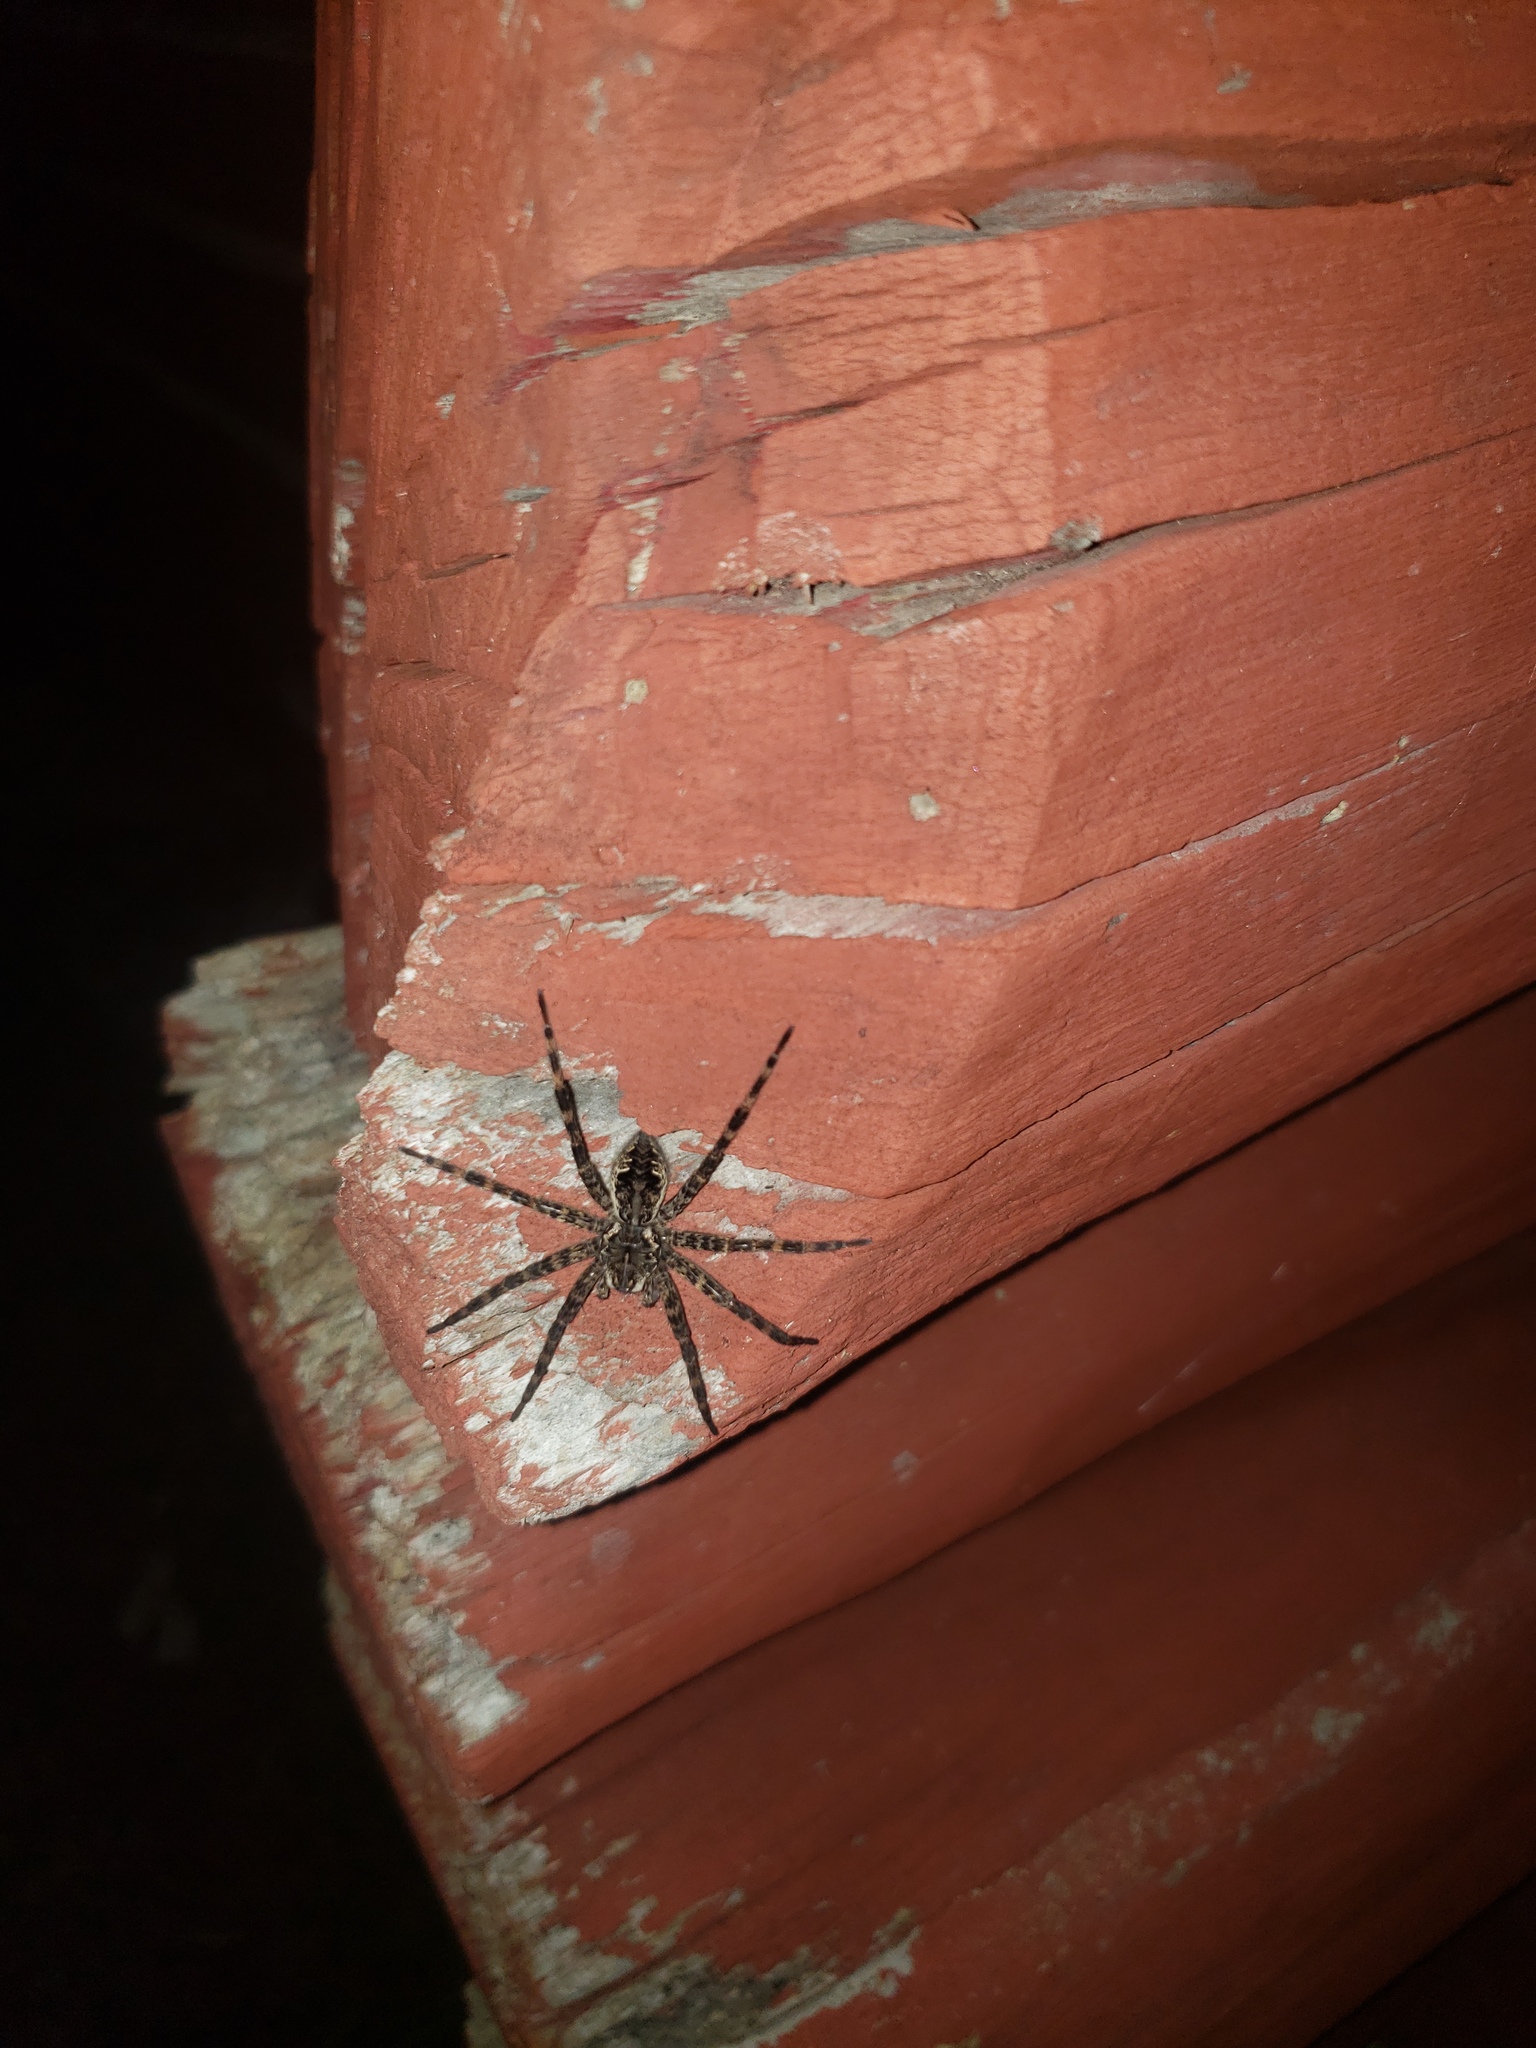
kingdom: Animalia
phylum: Arthropoda
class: Arachnida
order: Araneae
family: Pisauridae
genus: Dolomedes
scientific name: Dolomedes tenebrosus
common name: Dark fishing spider
